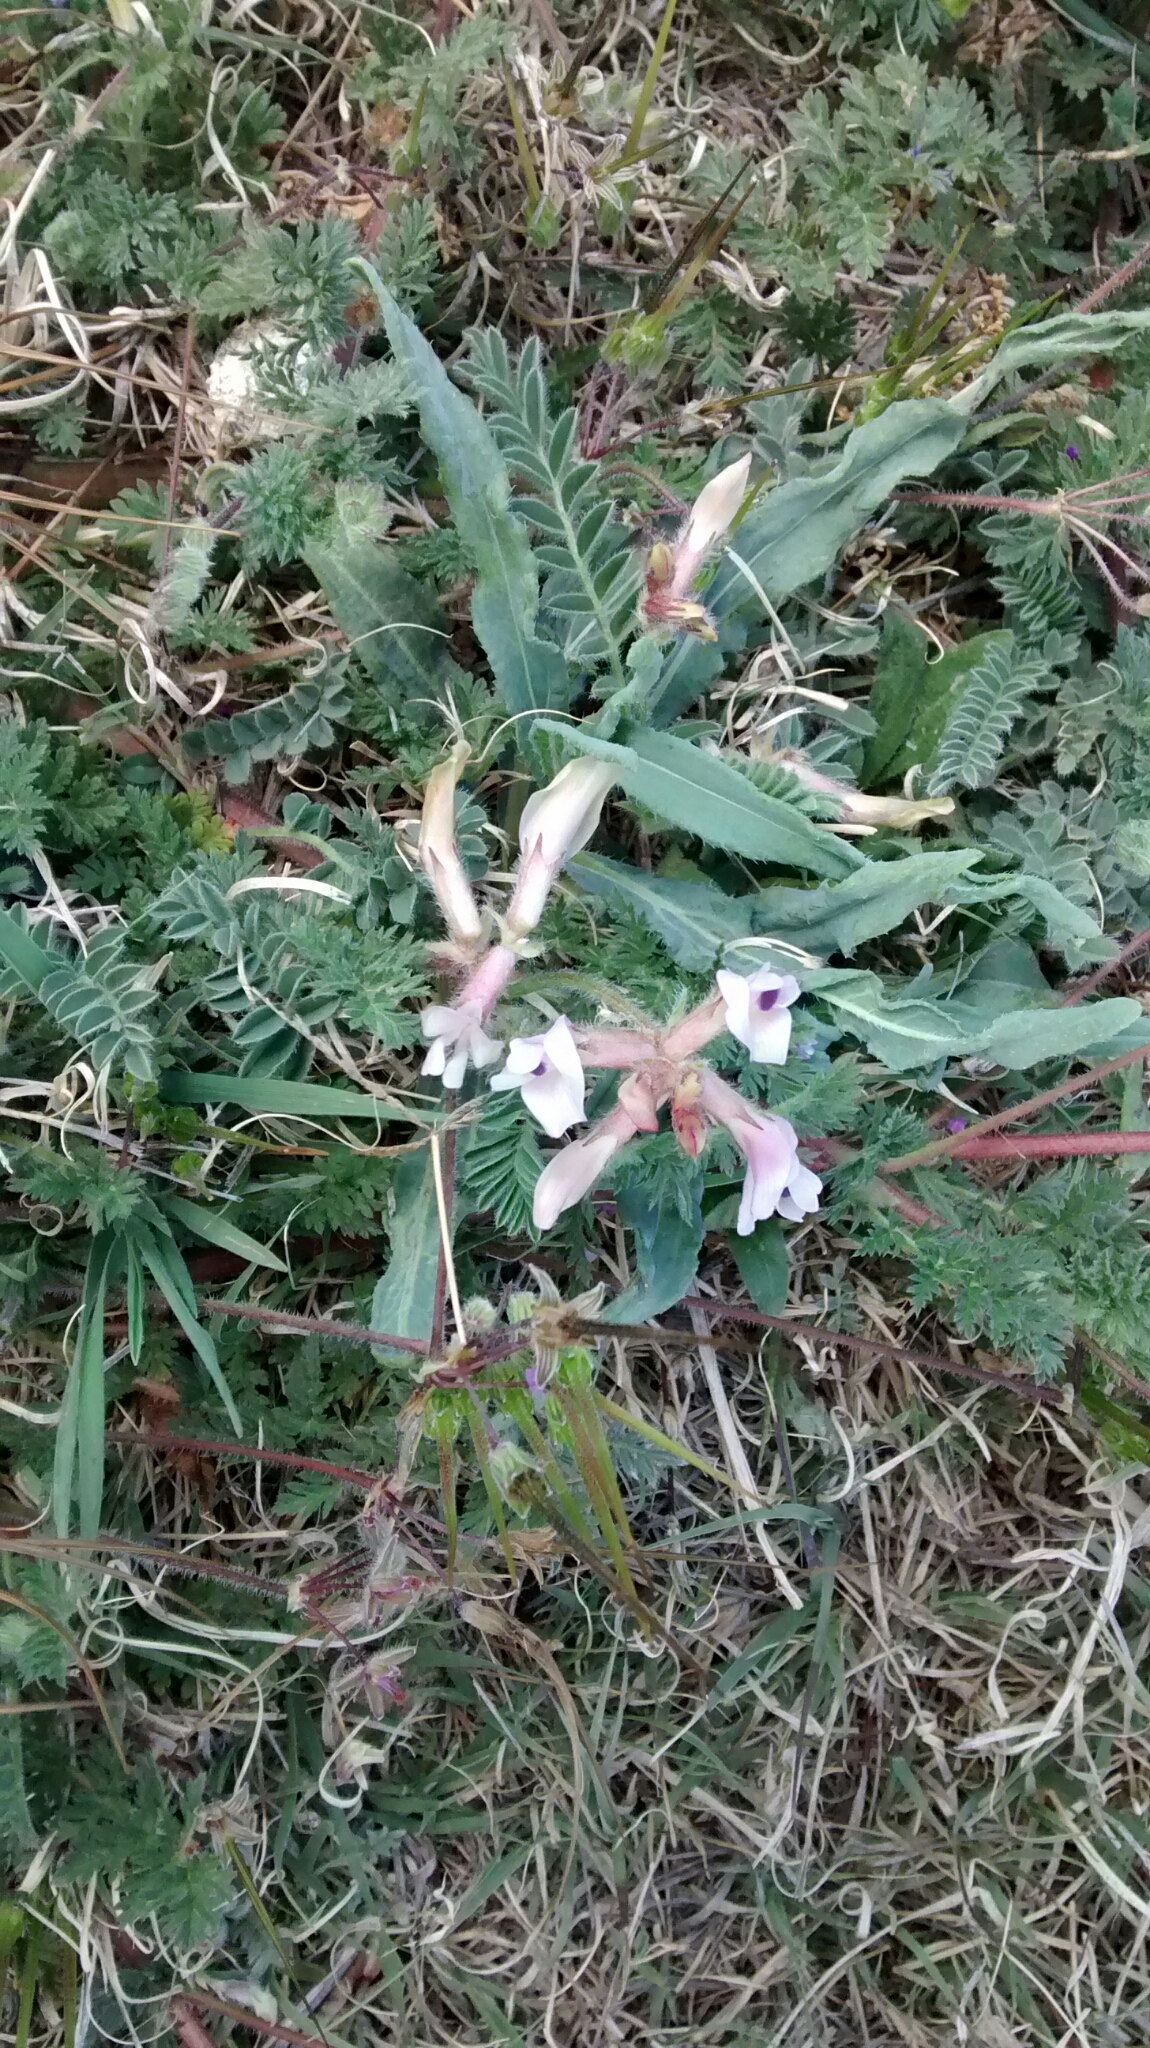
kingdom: Plantae
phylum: Tracheophyta
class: Magnoliopsida
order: Fabales
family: Fabaceae
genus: Astragalus
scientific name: Astragalus plattensis
